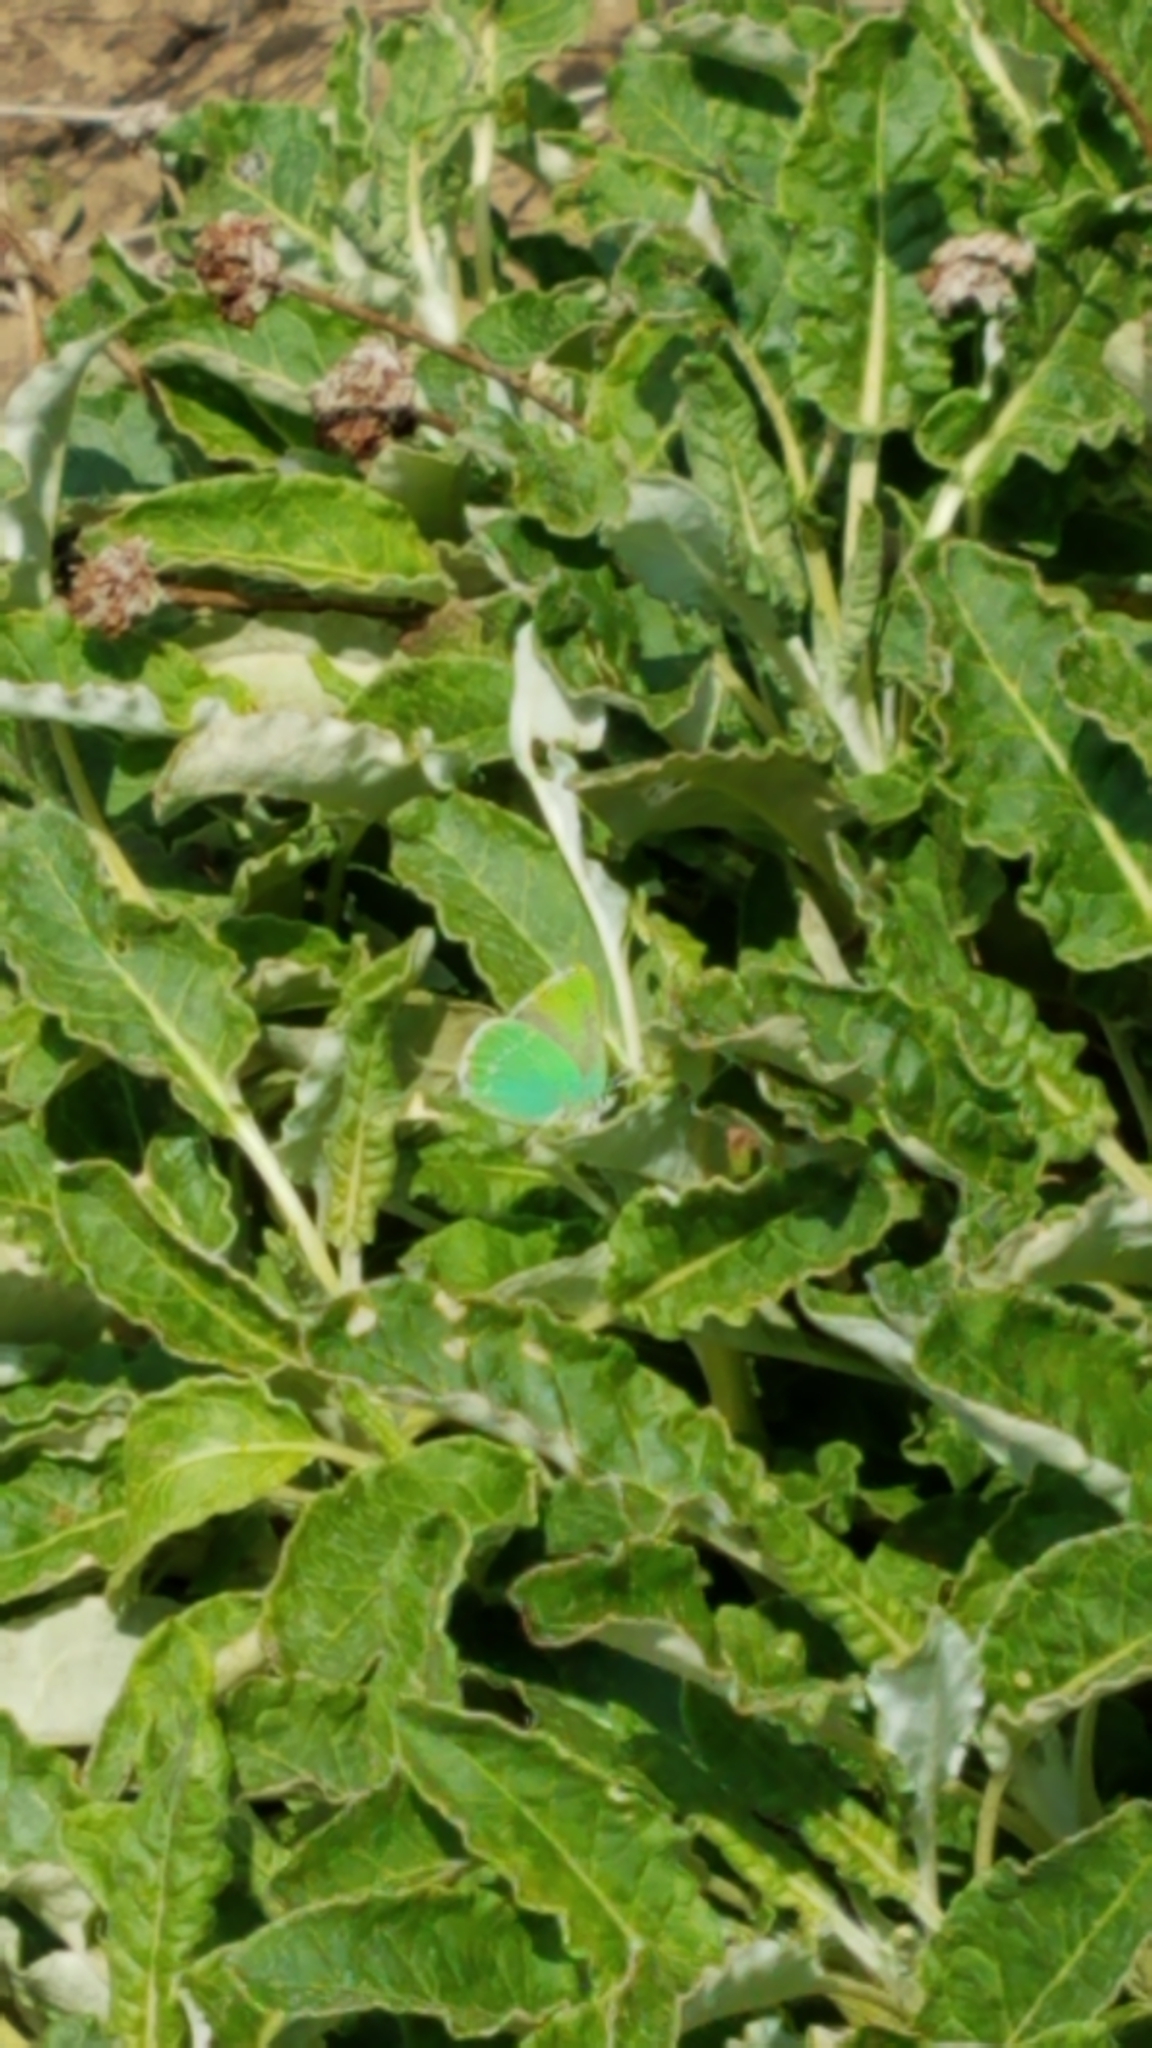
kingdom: Animalia
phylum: Arthropoda
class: Insecta
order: Lepidoptera
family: Lycaenidae
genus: Callophrys
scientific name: Callophrys viridis
